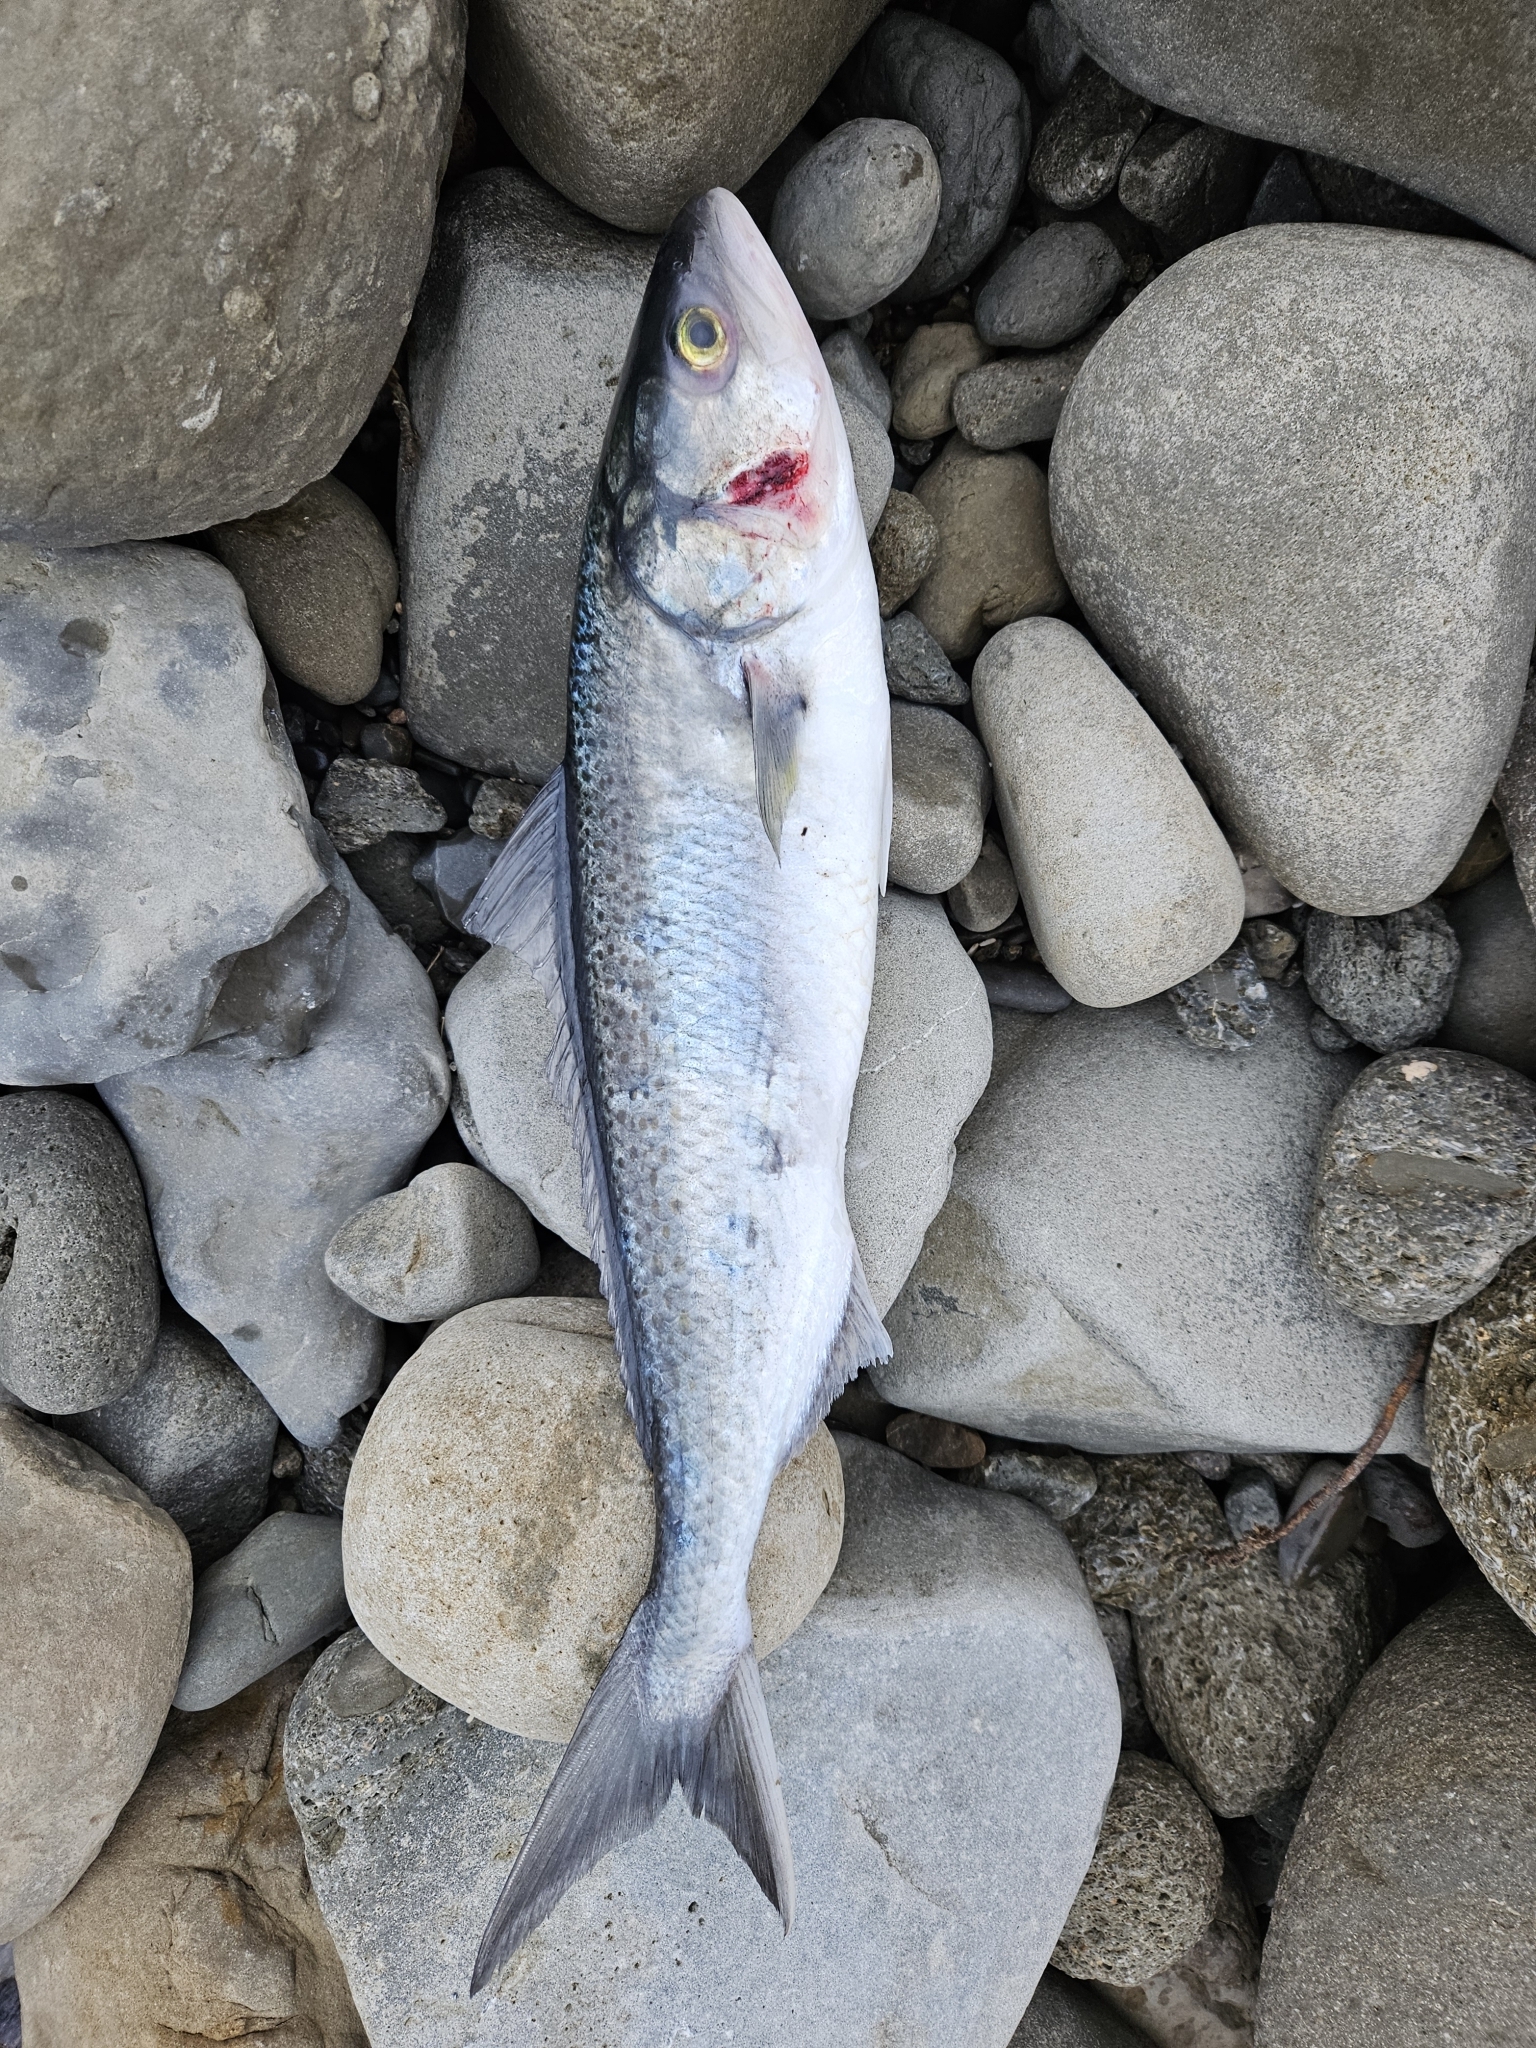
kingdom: Animalia
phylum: Chordata
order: Perciformes
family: Arripidae
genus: Arripis
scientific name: Arripis trutta
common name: Kahawai
